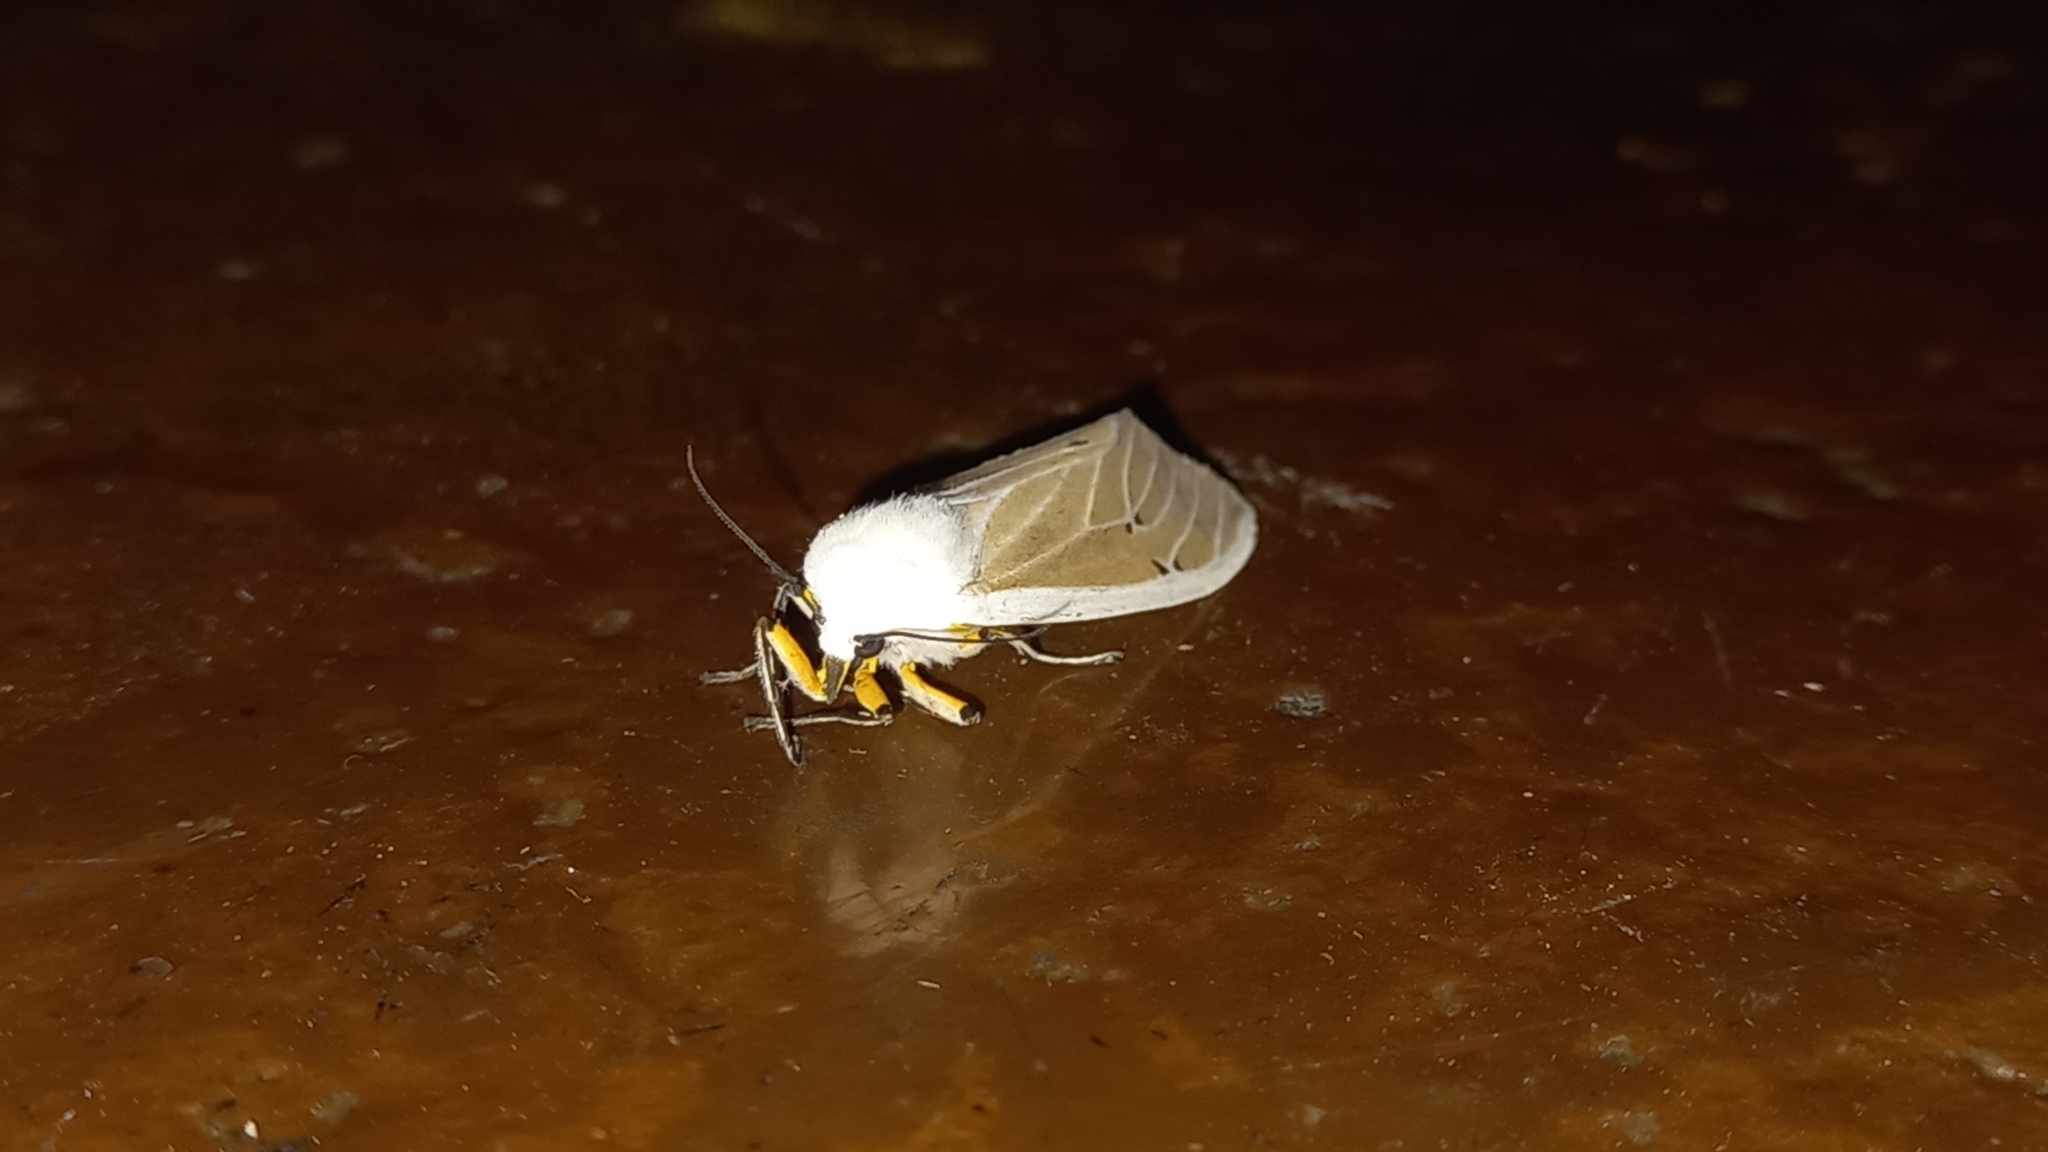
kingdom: Animalia
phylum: Arthropoda
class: Insecta
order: Lepidoptera
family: Erebidae
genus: Creatonotos
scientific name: Creatonotos transiens
